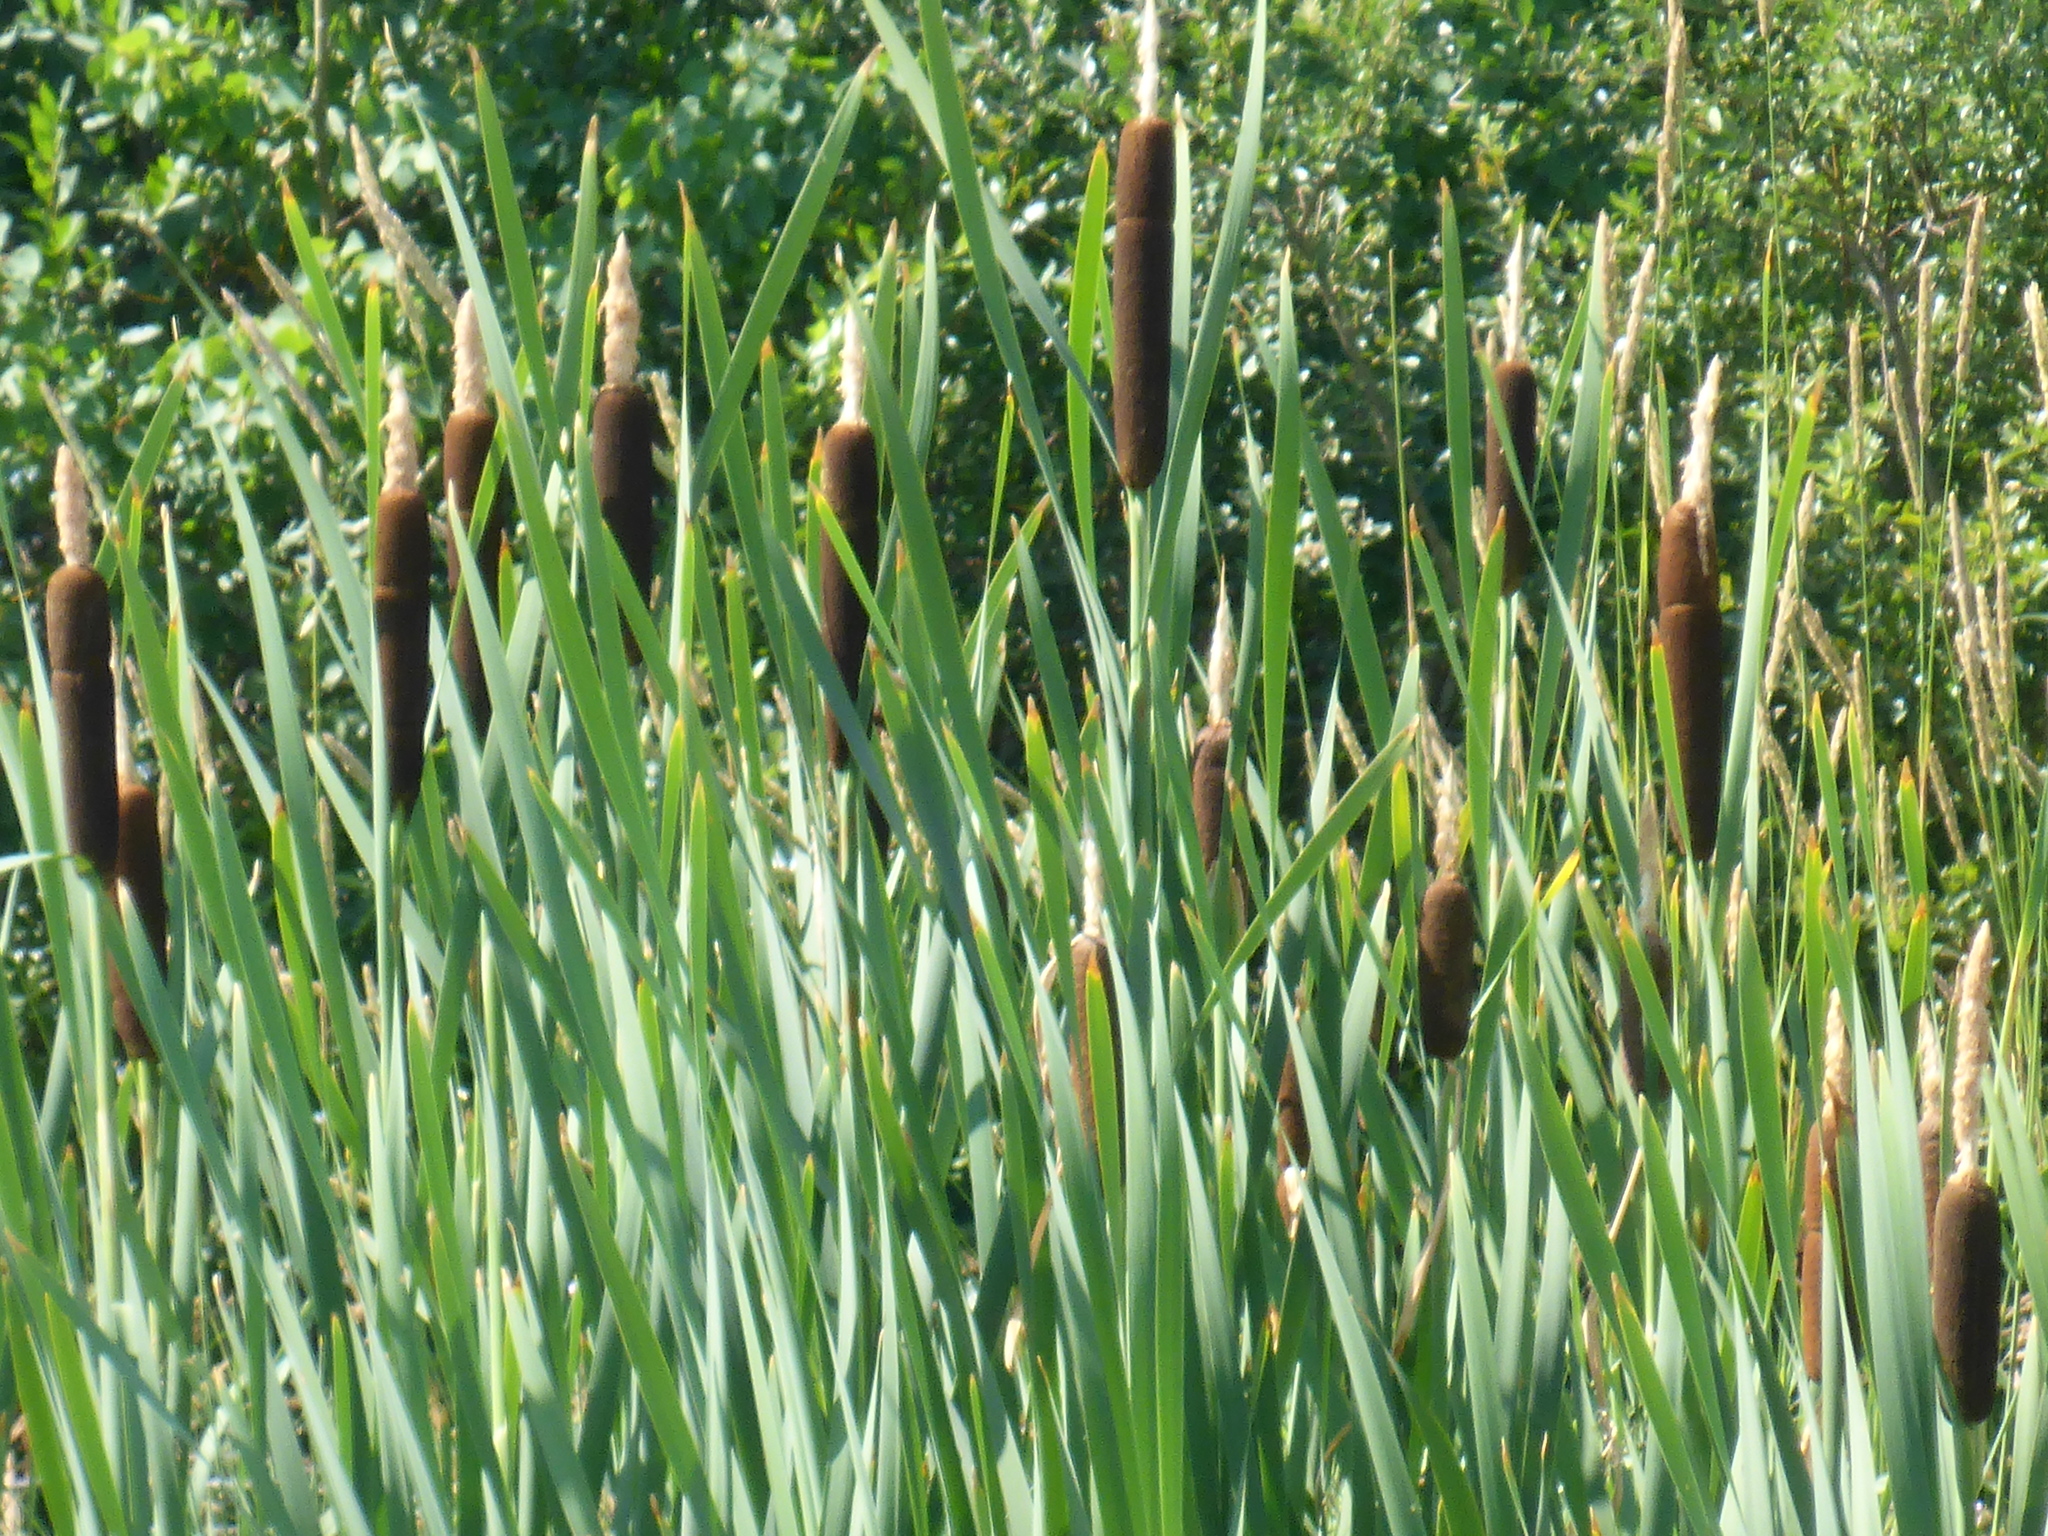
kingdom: Plantae
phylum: Tracheophyta
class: Liliopsida
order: Poales
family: Typhaceae
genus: Typha
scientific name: Typha latifolia
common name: Broadleaf cattail
